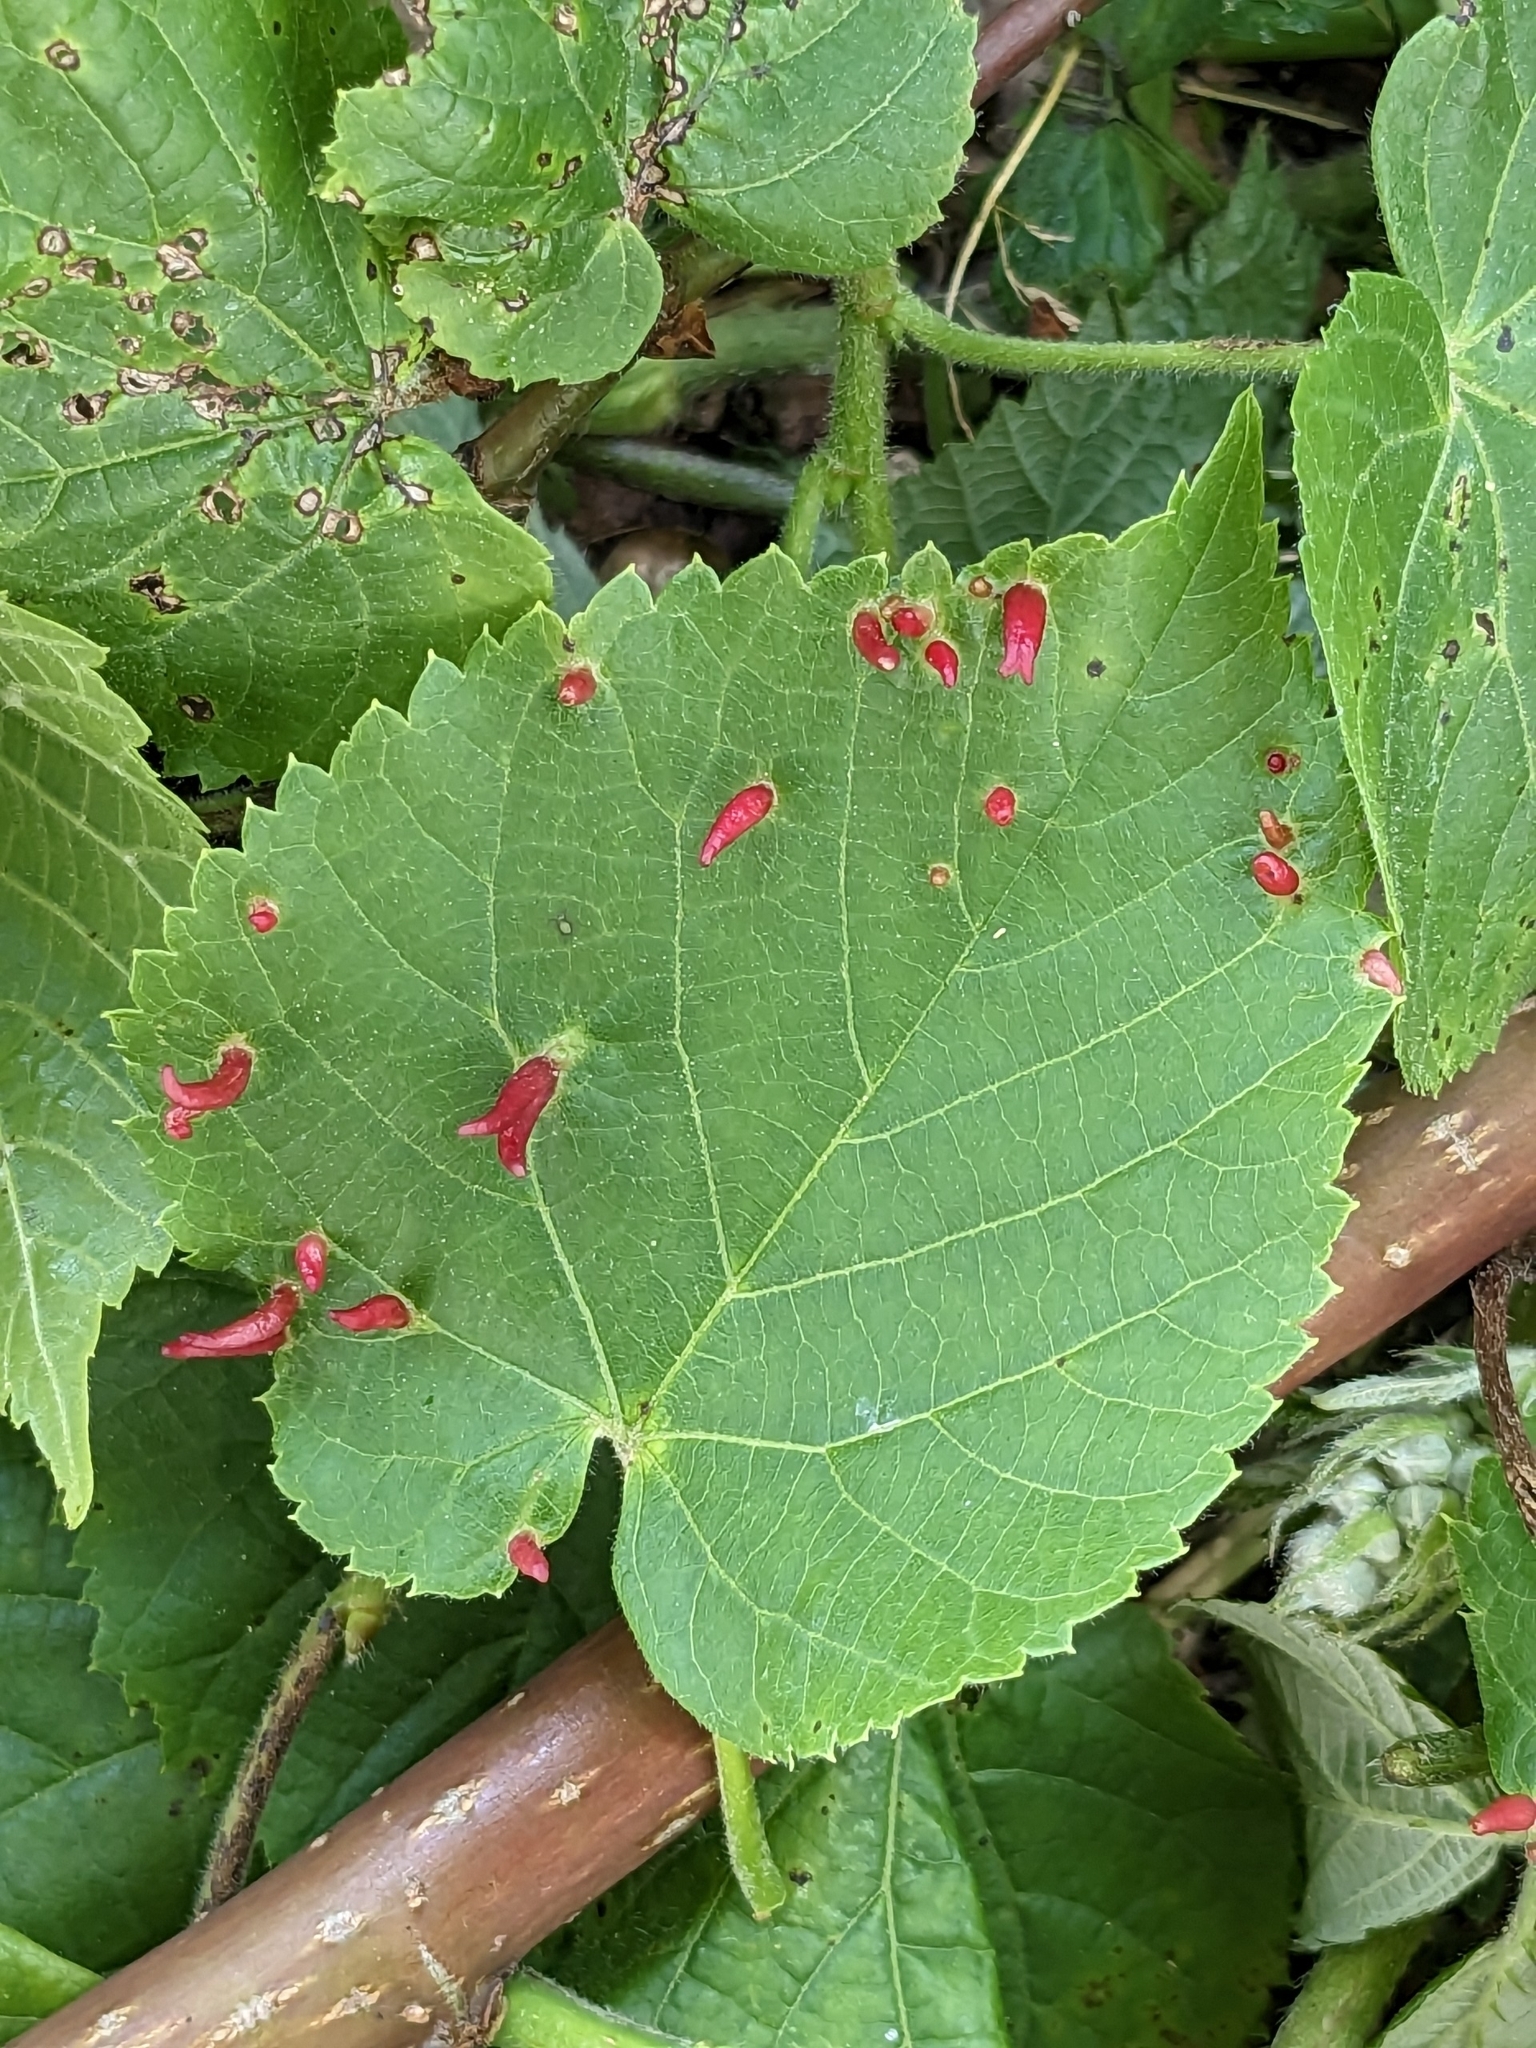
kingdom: Animalia
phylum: Arthropoda
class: Arachnida
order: Trombidiformes
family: Eriophyidae
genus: Eriophyes
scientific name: Eriophyes tiliae
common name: Red nail gall mite
